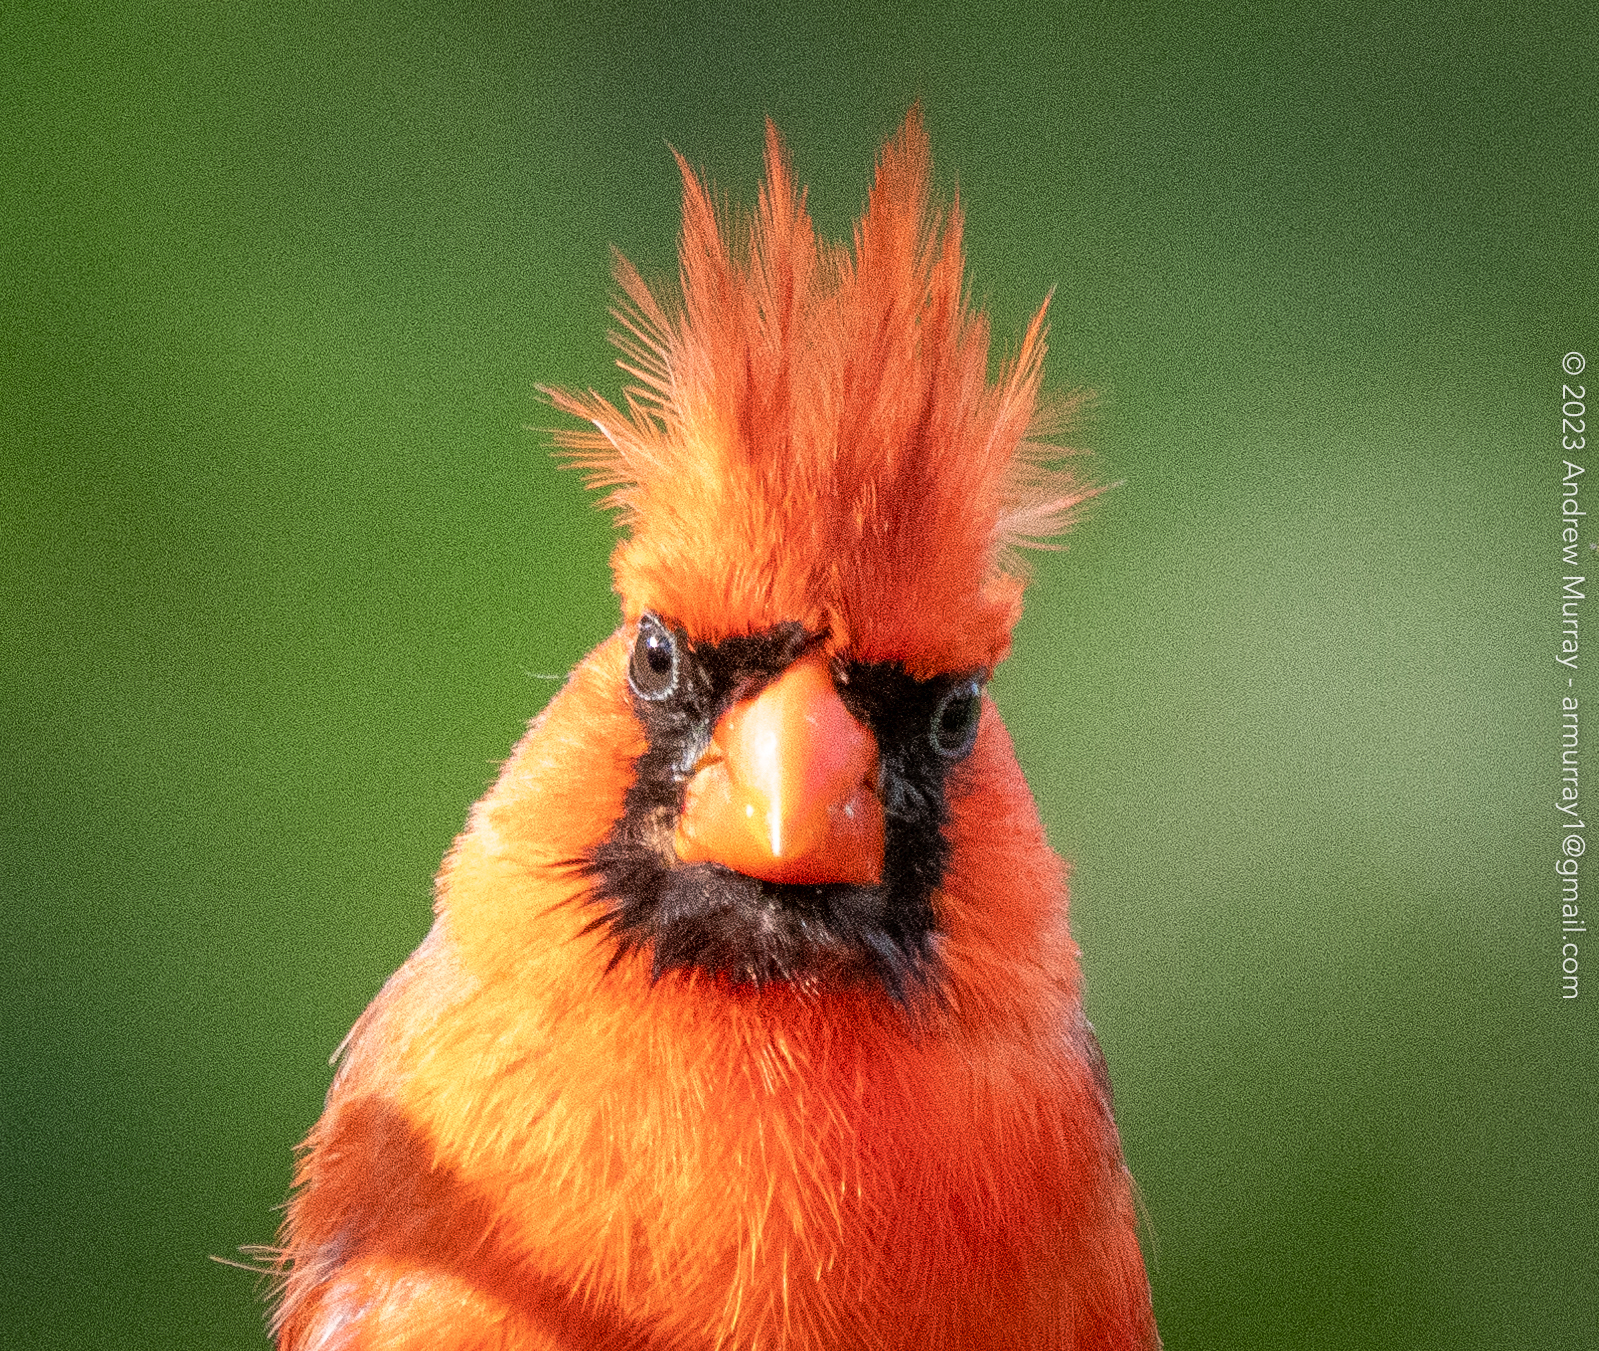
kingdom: Animalia
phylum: Chordata
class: Aves
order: Passeriformes
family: Cardinalidae
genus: Cardinalis
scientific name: Cardinalis cardinalis
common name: Northern cardinal
